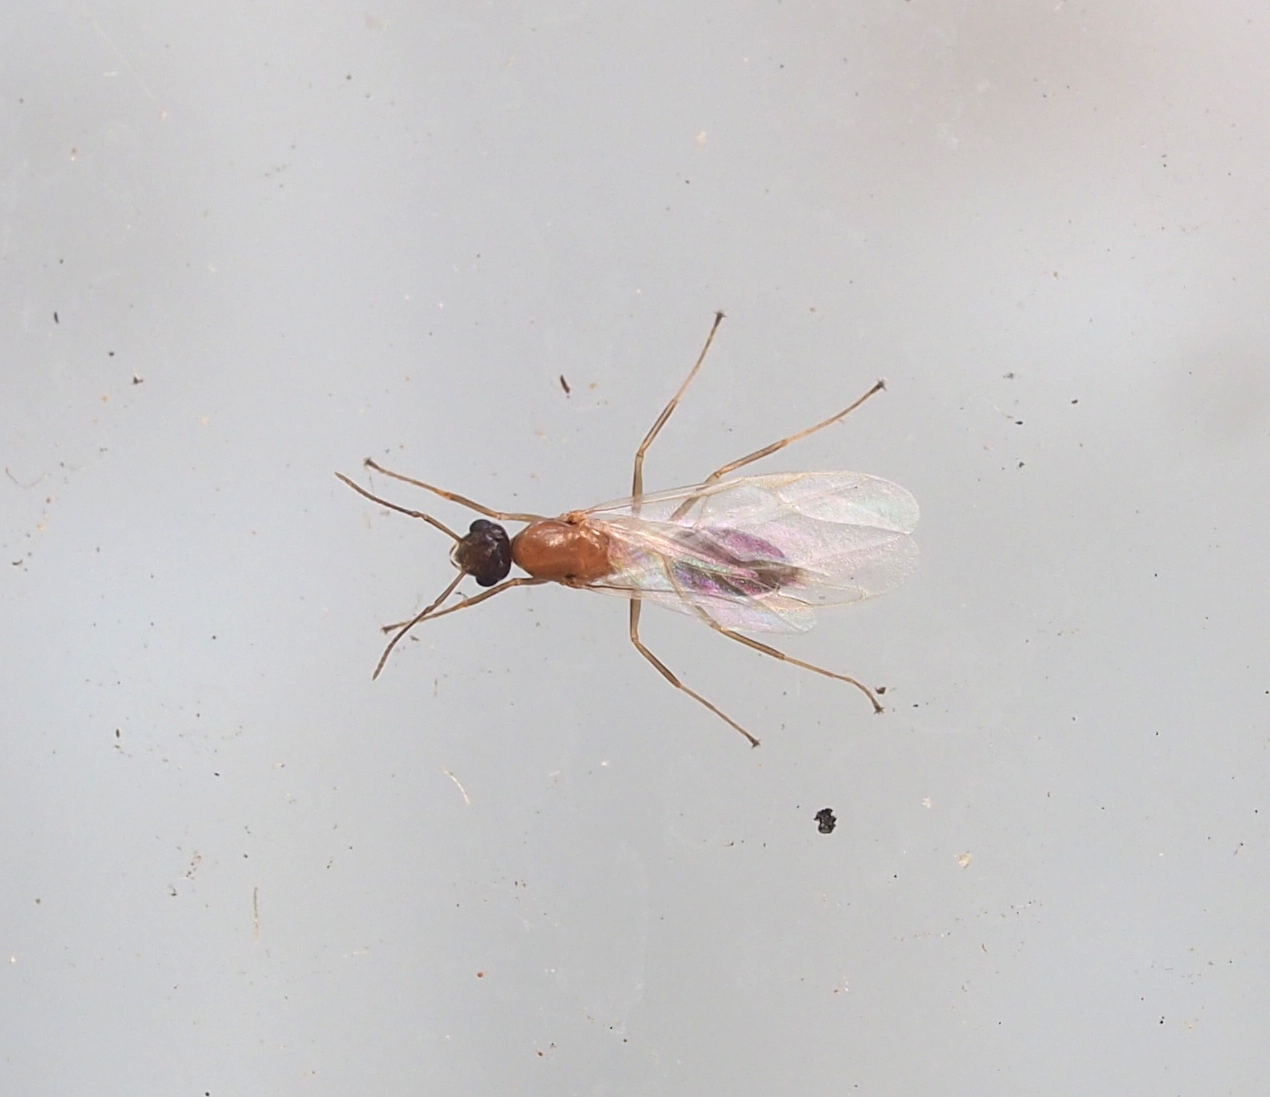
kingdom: Animalia
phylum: Arthropoda
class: Insecta
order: Hymenoptera
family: Formicidae
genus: Camponotus
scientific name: Camponotus truncatus
